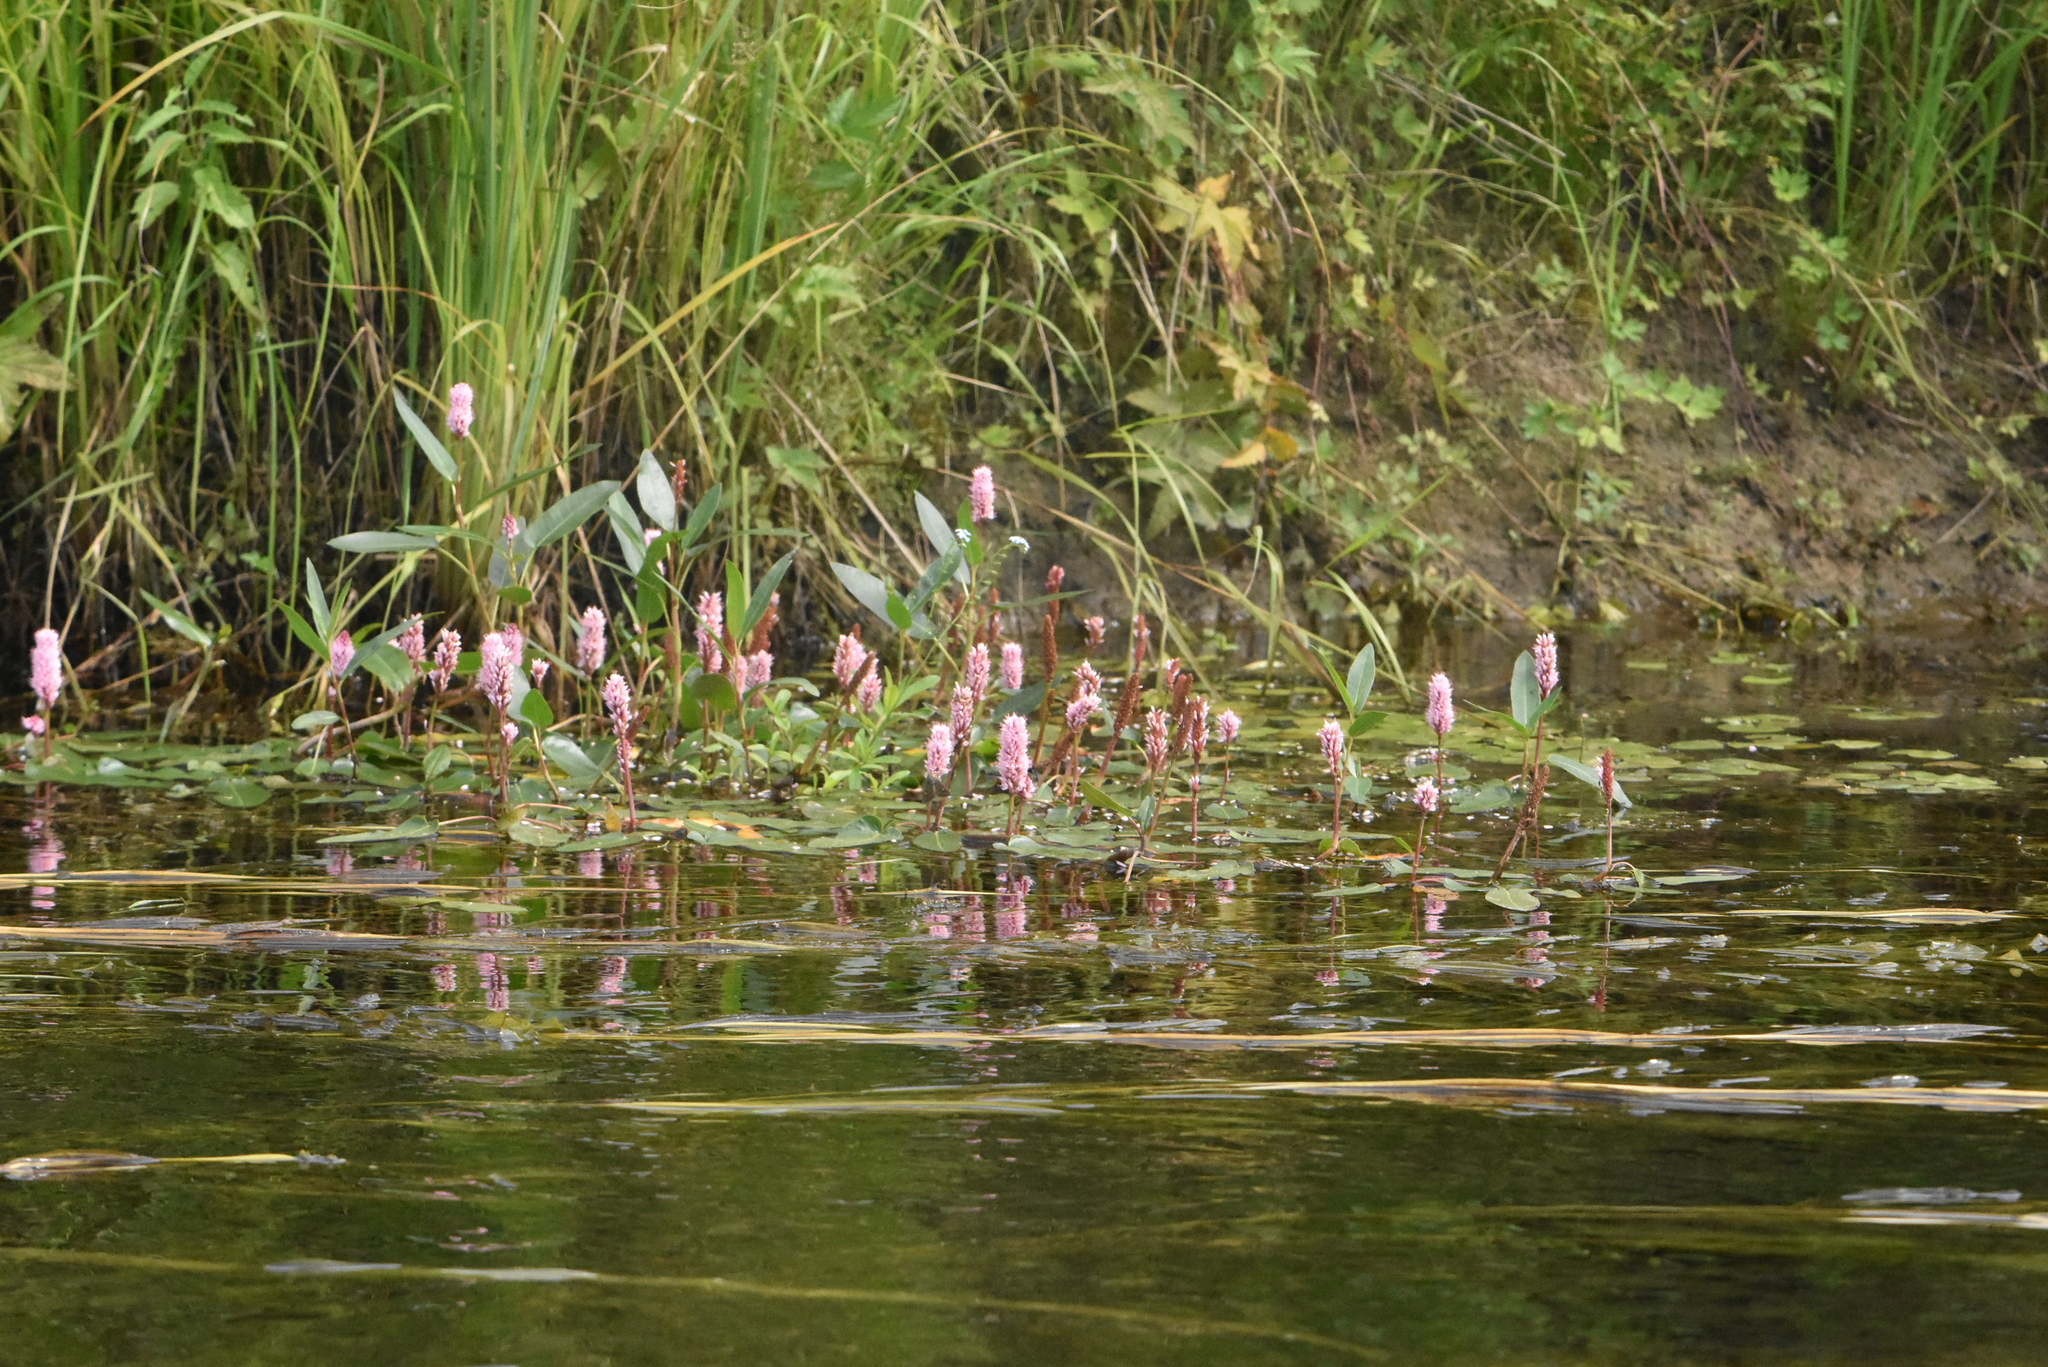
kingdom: Plantae
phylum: Tracheophyta
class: Magnoliopsida
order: Caryophyllales
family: Polygonaceae
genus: Persicaria
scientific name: Persicaria amphibia
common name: Amphibious bistort
